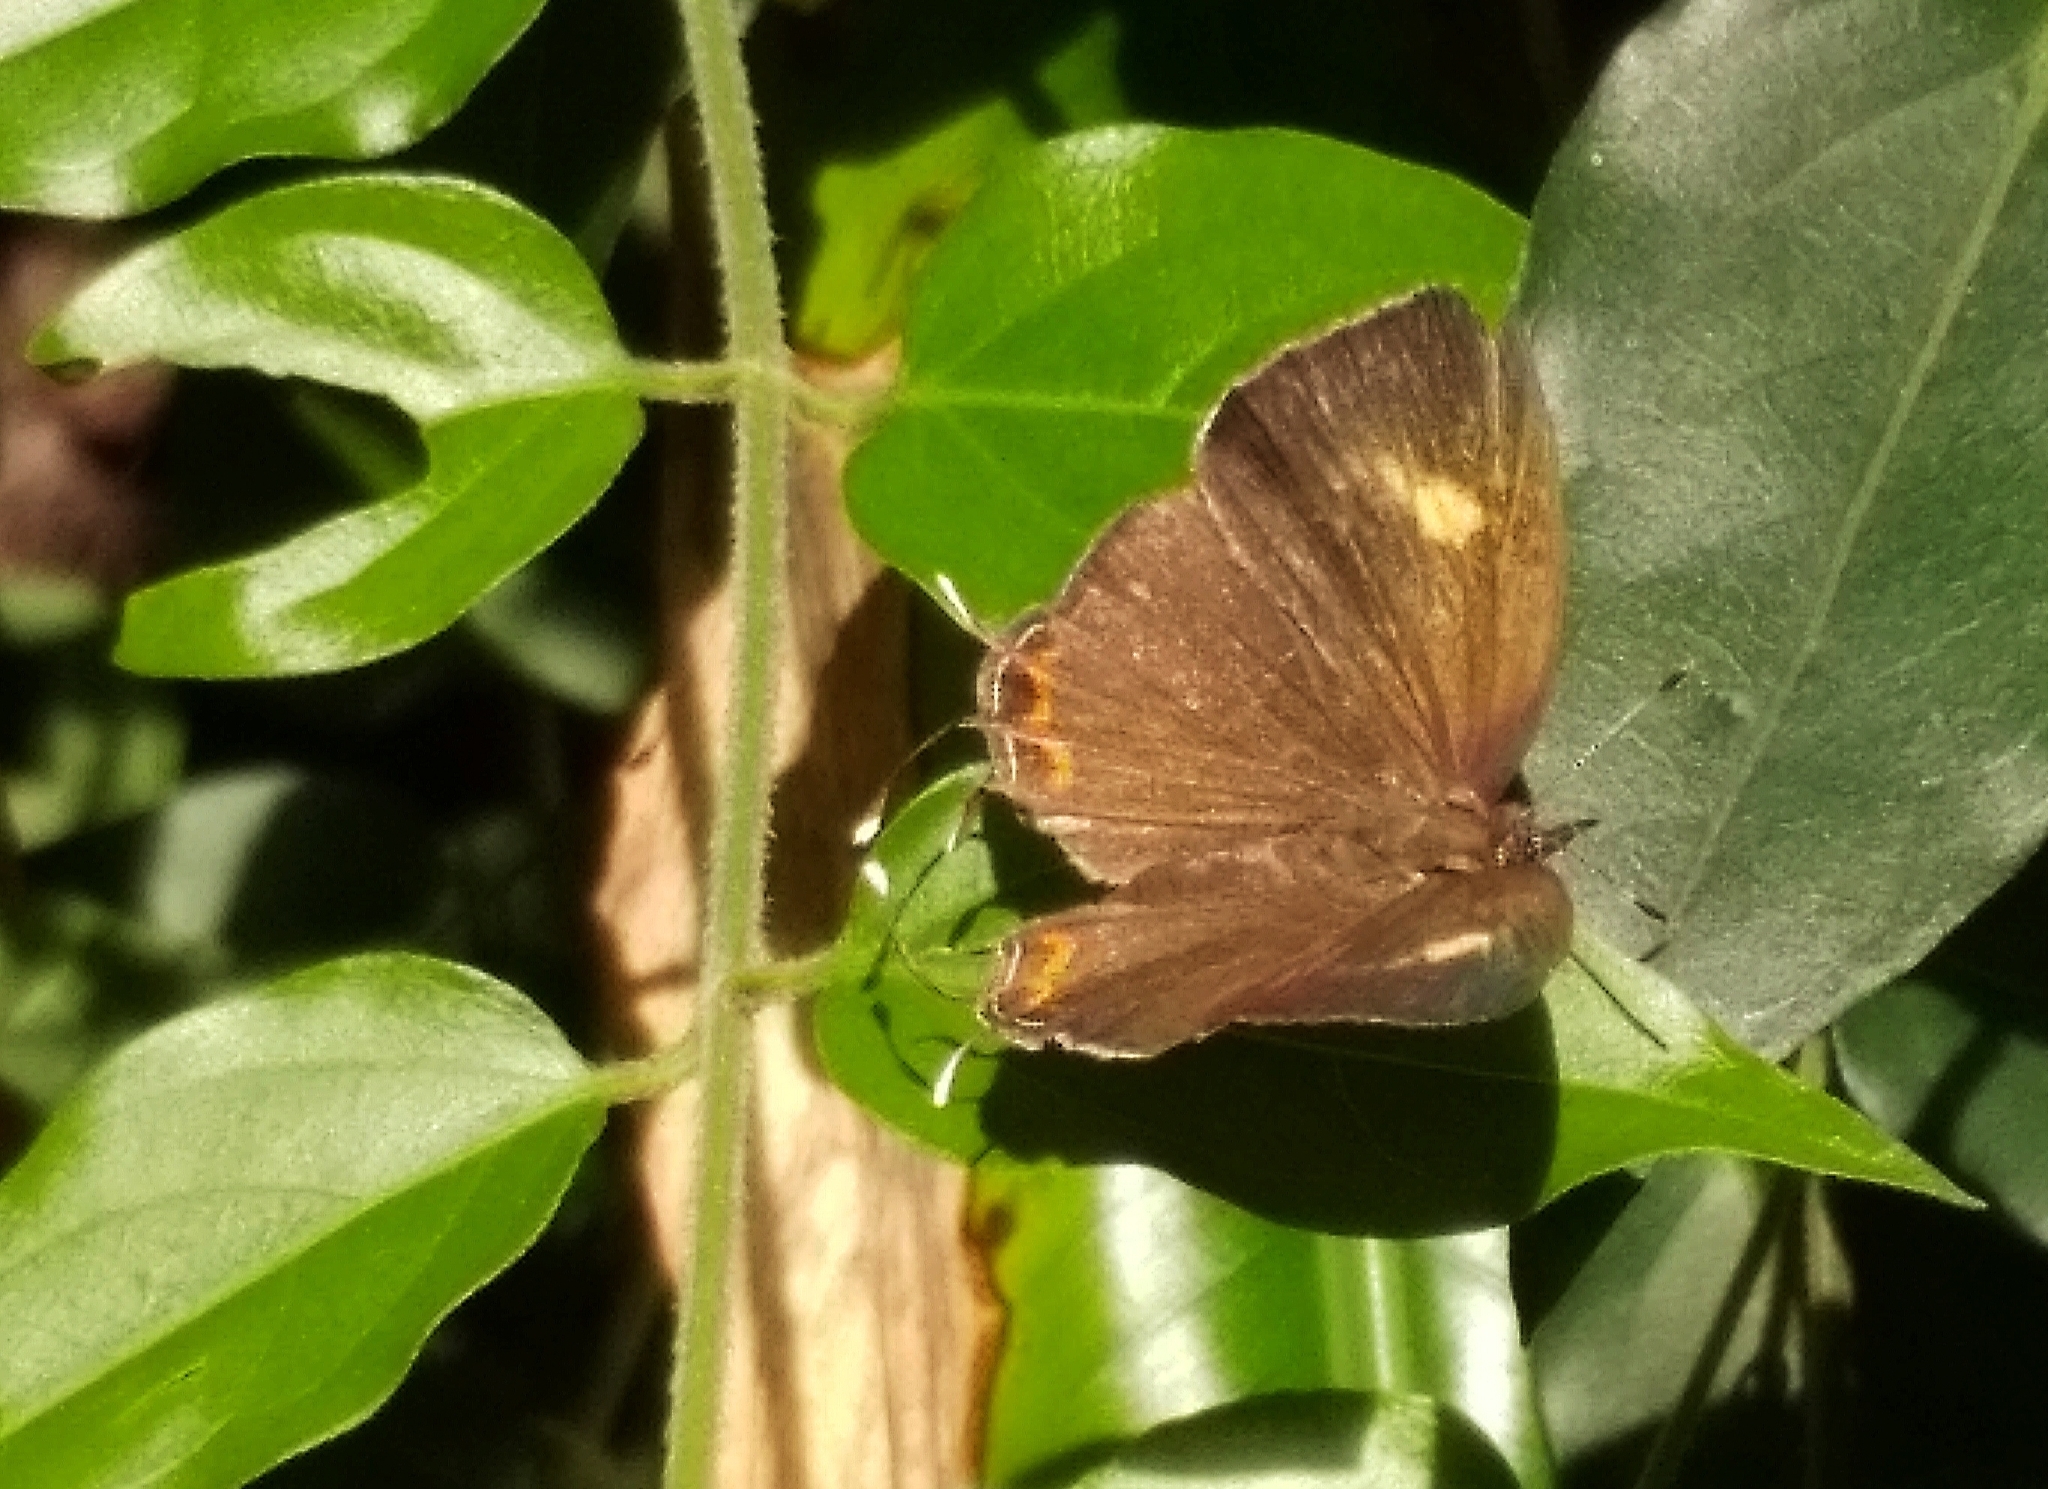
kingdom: Animalia
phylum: Arthropoda
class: Insecta
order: Lepidoptera
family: Lycaenidae
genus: Rathinda
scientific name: Rathinda amor
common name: Monkey puzzle
